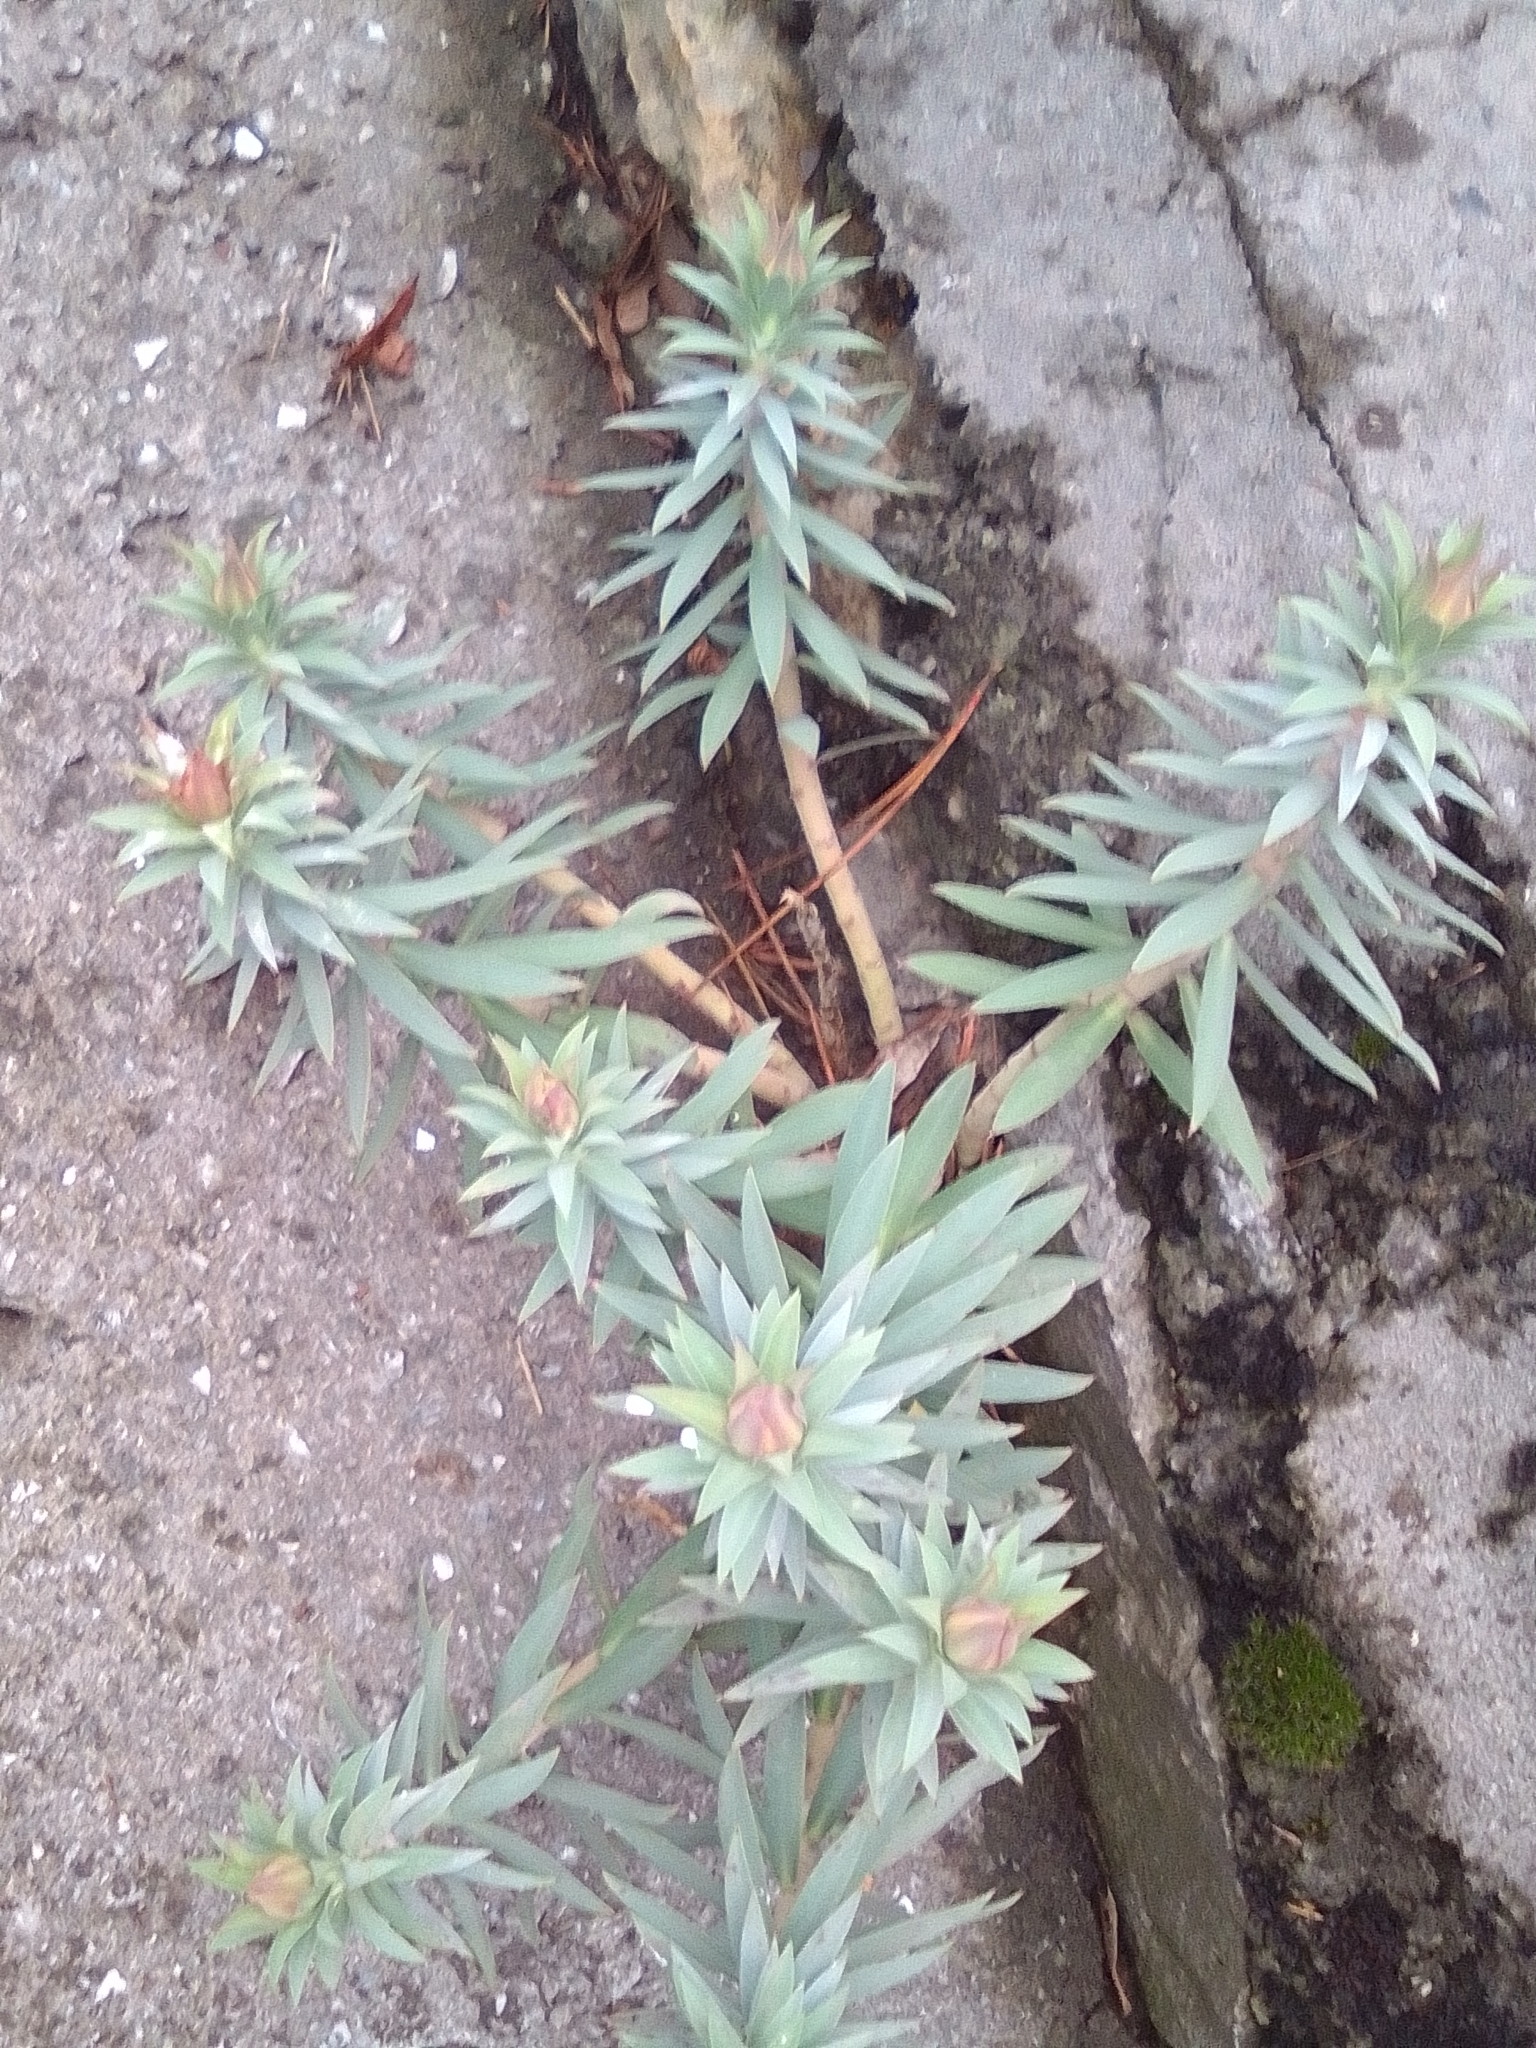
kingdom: Plantae
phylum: Tracheophyta
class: Magnoliopsida
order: Malpighiales
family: Euphorbiaceae
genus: Euphorbia
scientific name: Euphorbia rigida
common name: Upright myrtle spurge
